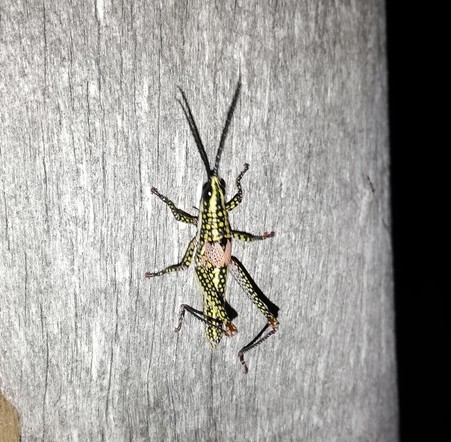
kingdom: Animalia
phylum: Arthropoda
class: Insecta
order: Orthoptera
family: Pyrgomorphidae
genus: Greyacris
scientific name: Greyacris profundesulcata
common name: Queensland spotted pyrgomorph
